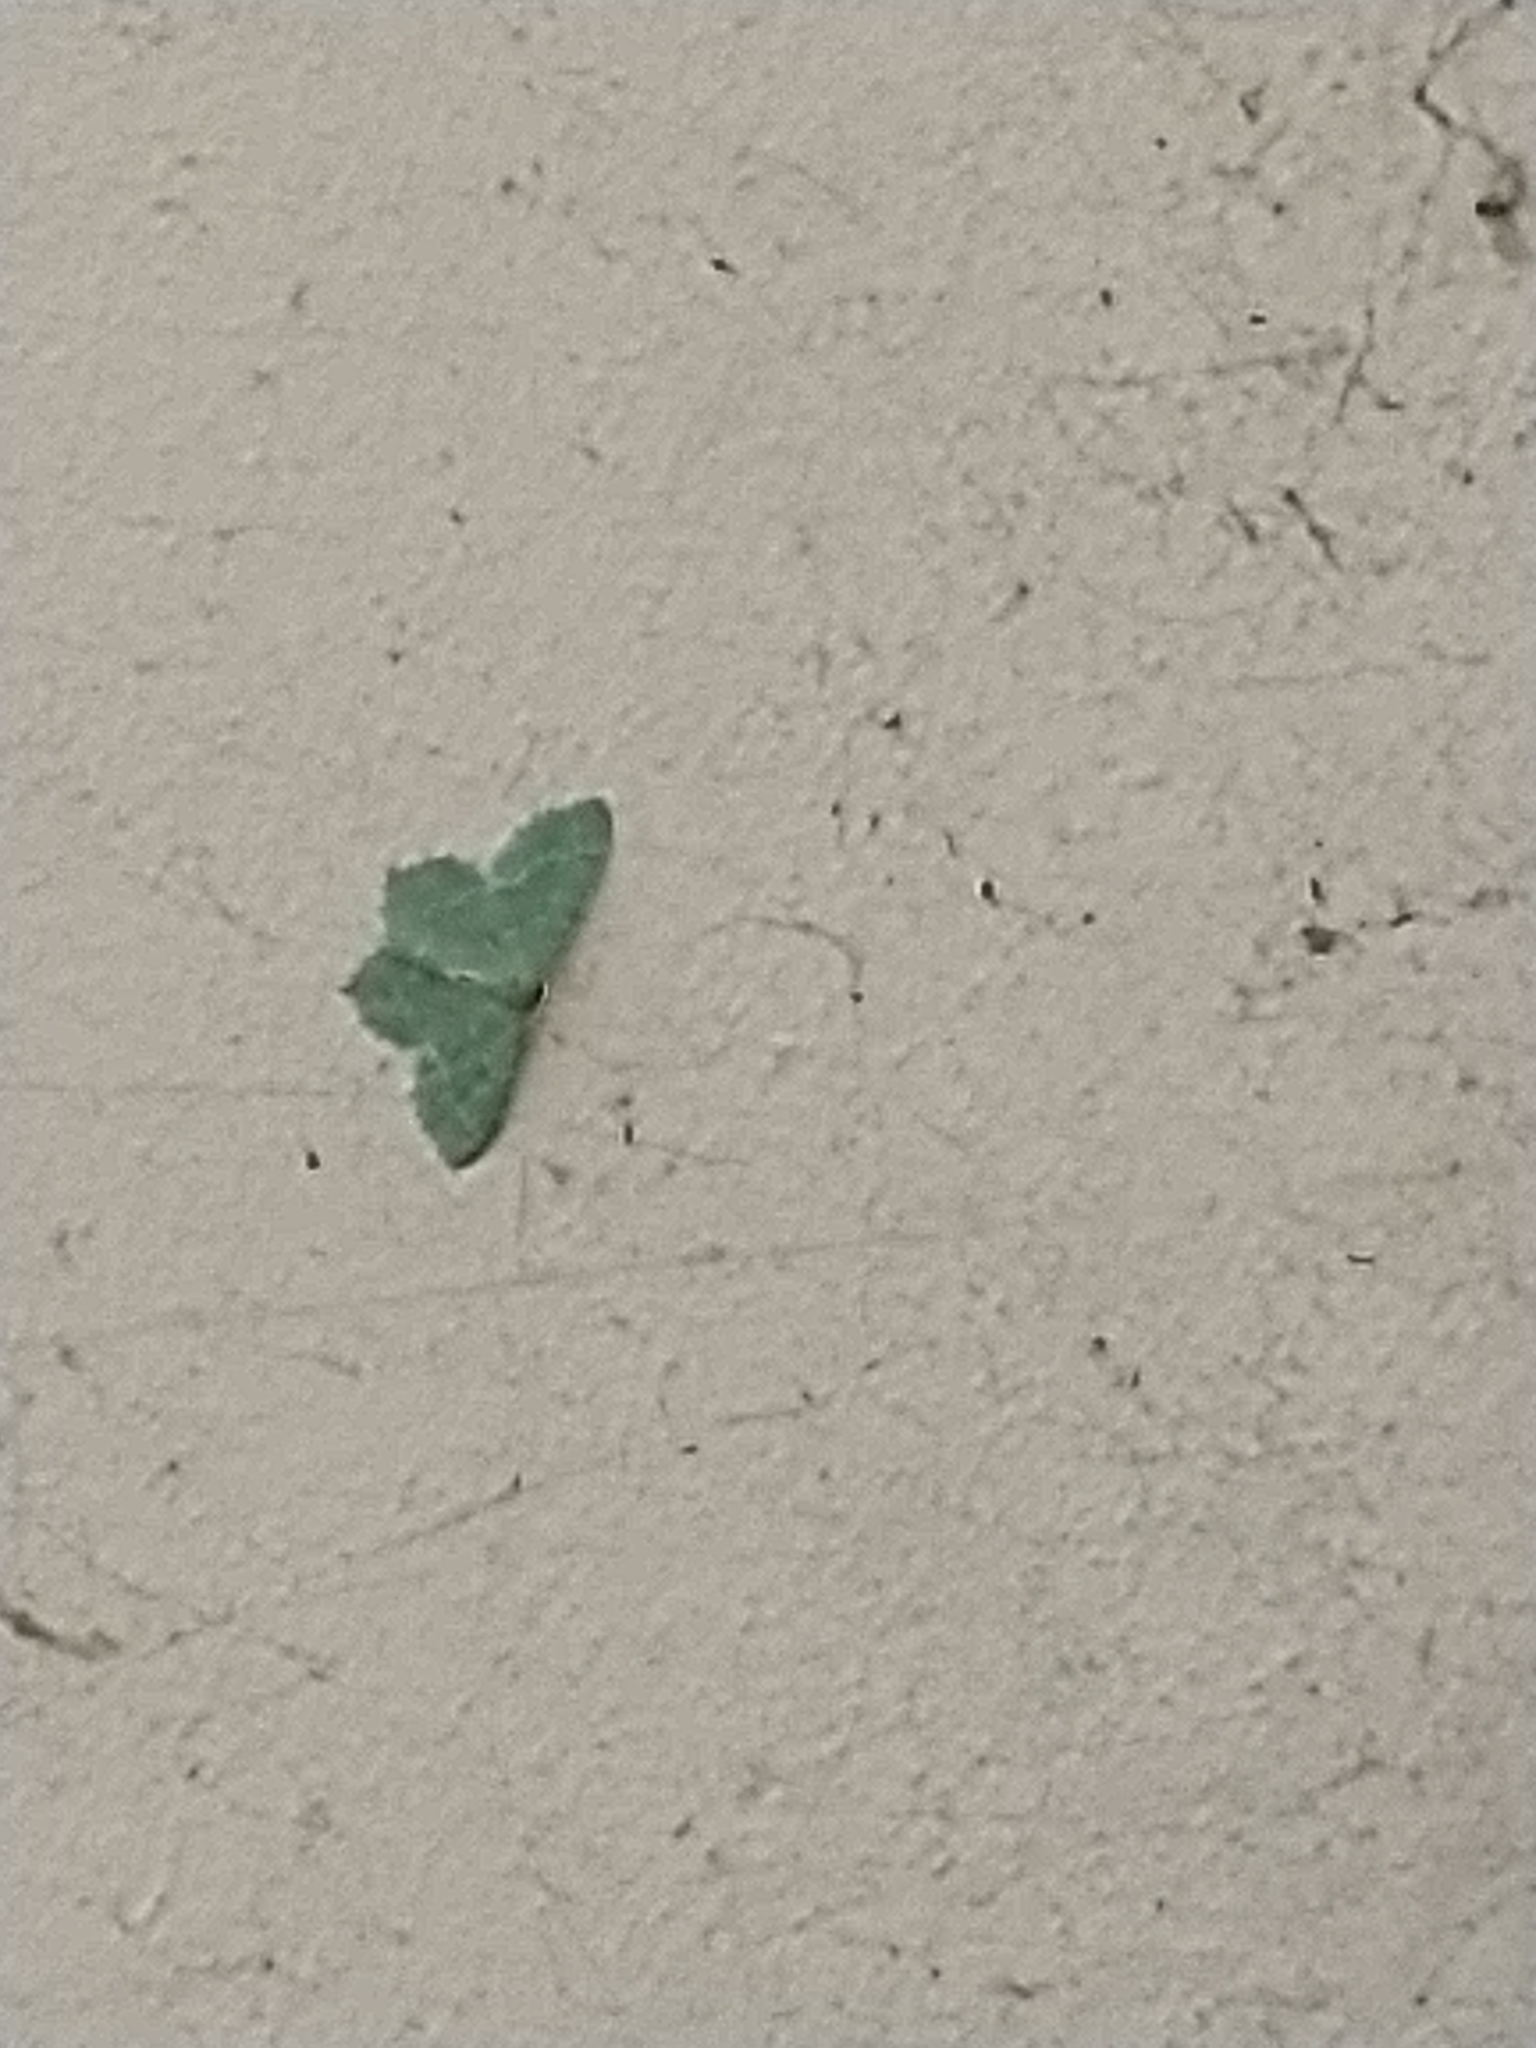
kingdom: Animalia
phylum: Arthropoda
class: Insecta
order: Lepidoptera
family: Geometridae
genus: Hemithea
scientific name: Hemithea aestivaria
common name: Common emerald
